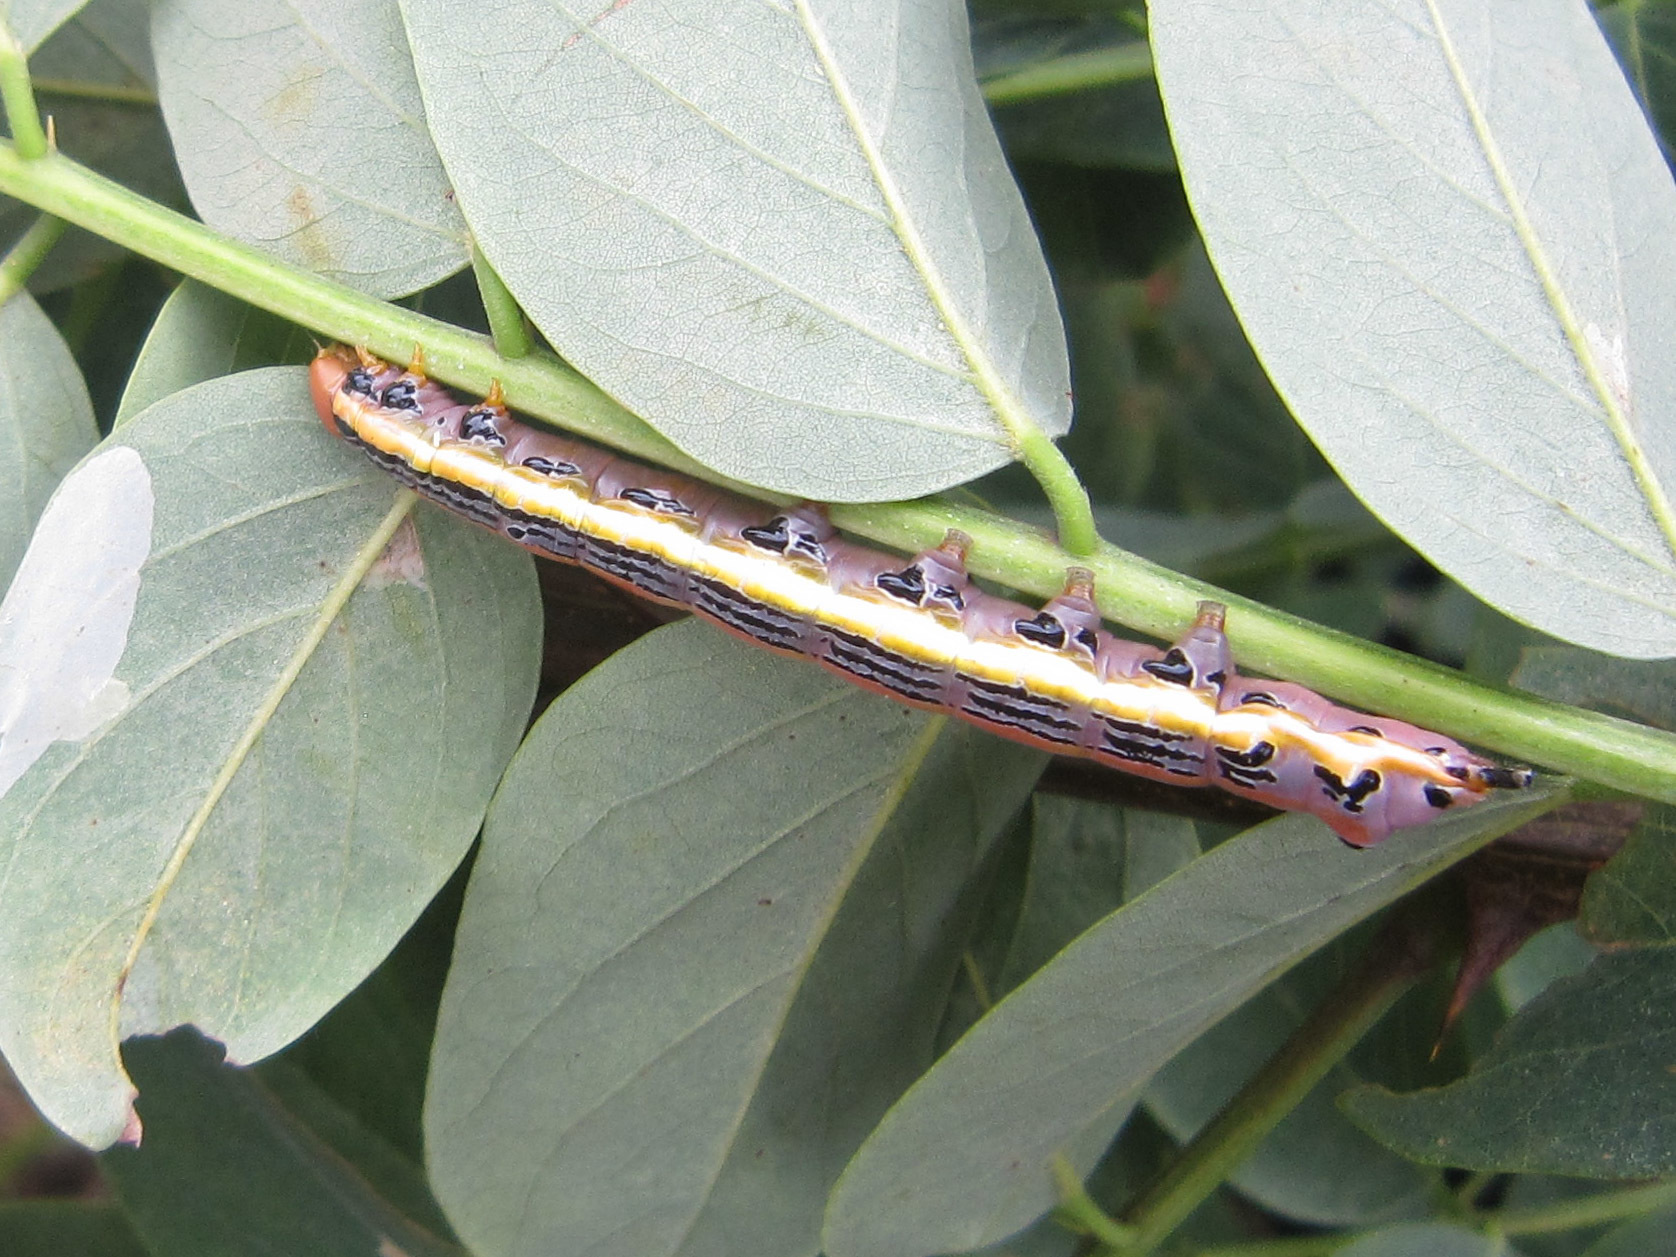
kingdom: Animalia
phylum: Arthropoda
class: Insecta
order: Lepidoptera
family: Notodontidae
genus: Dasylophia
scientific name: Dasylophia anguina
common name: Black-spotted prominent
